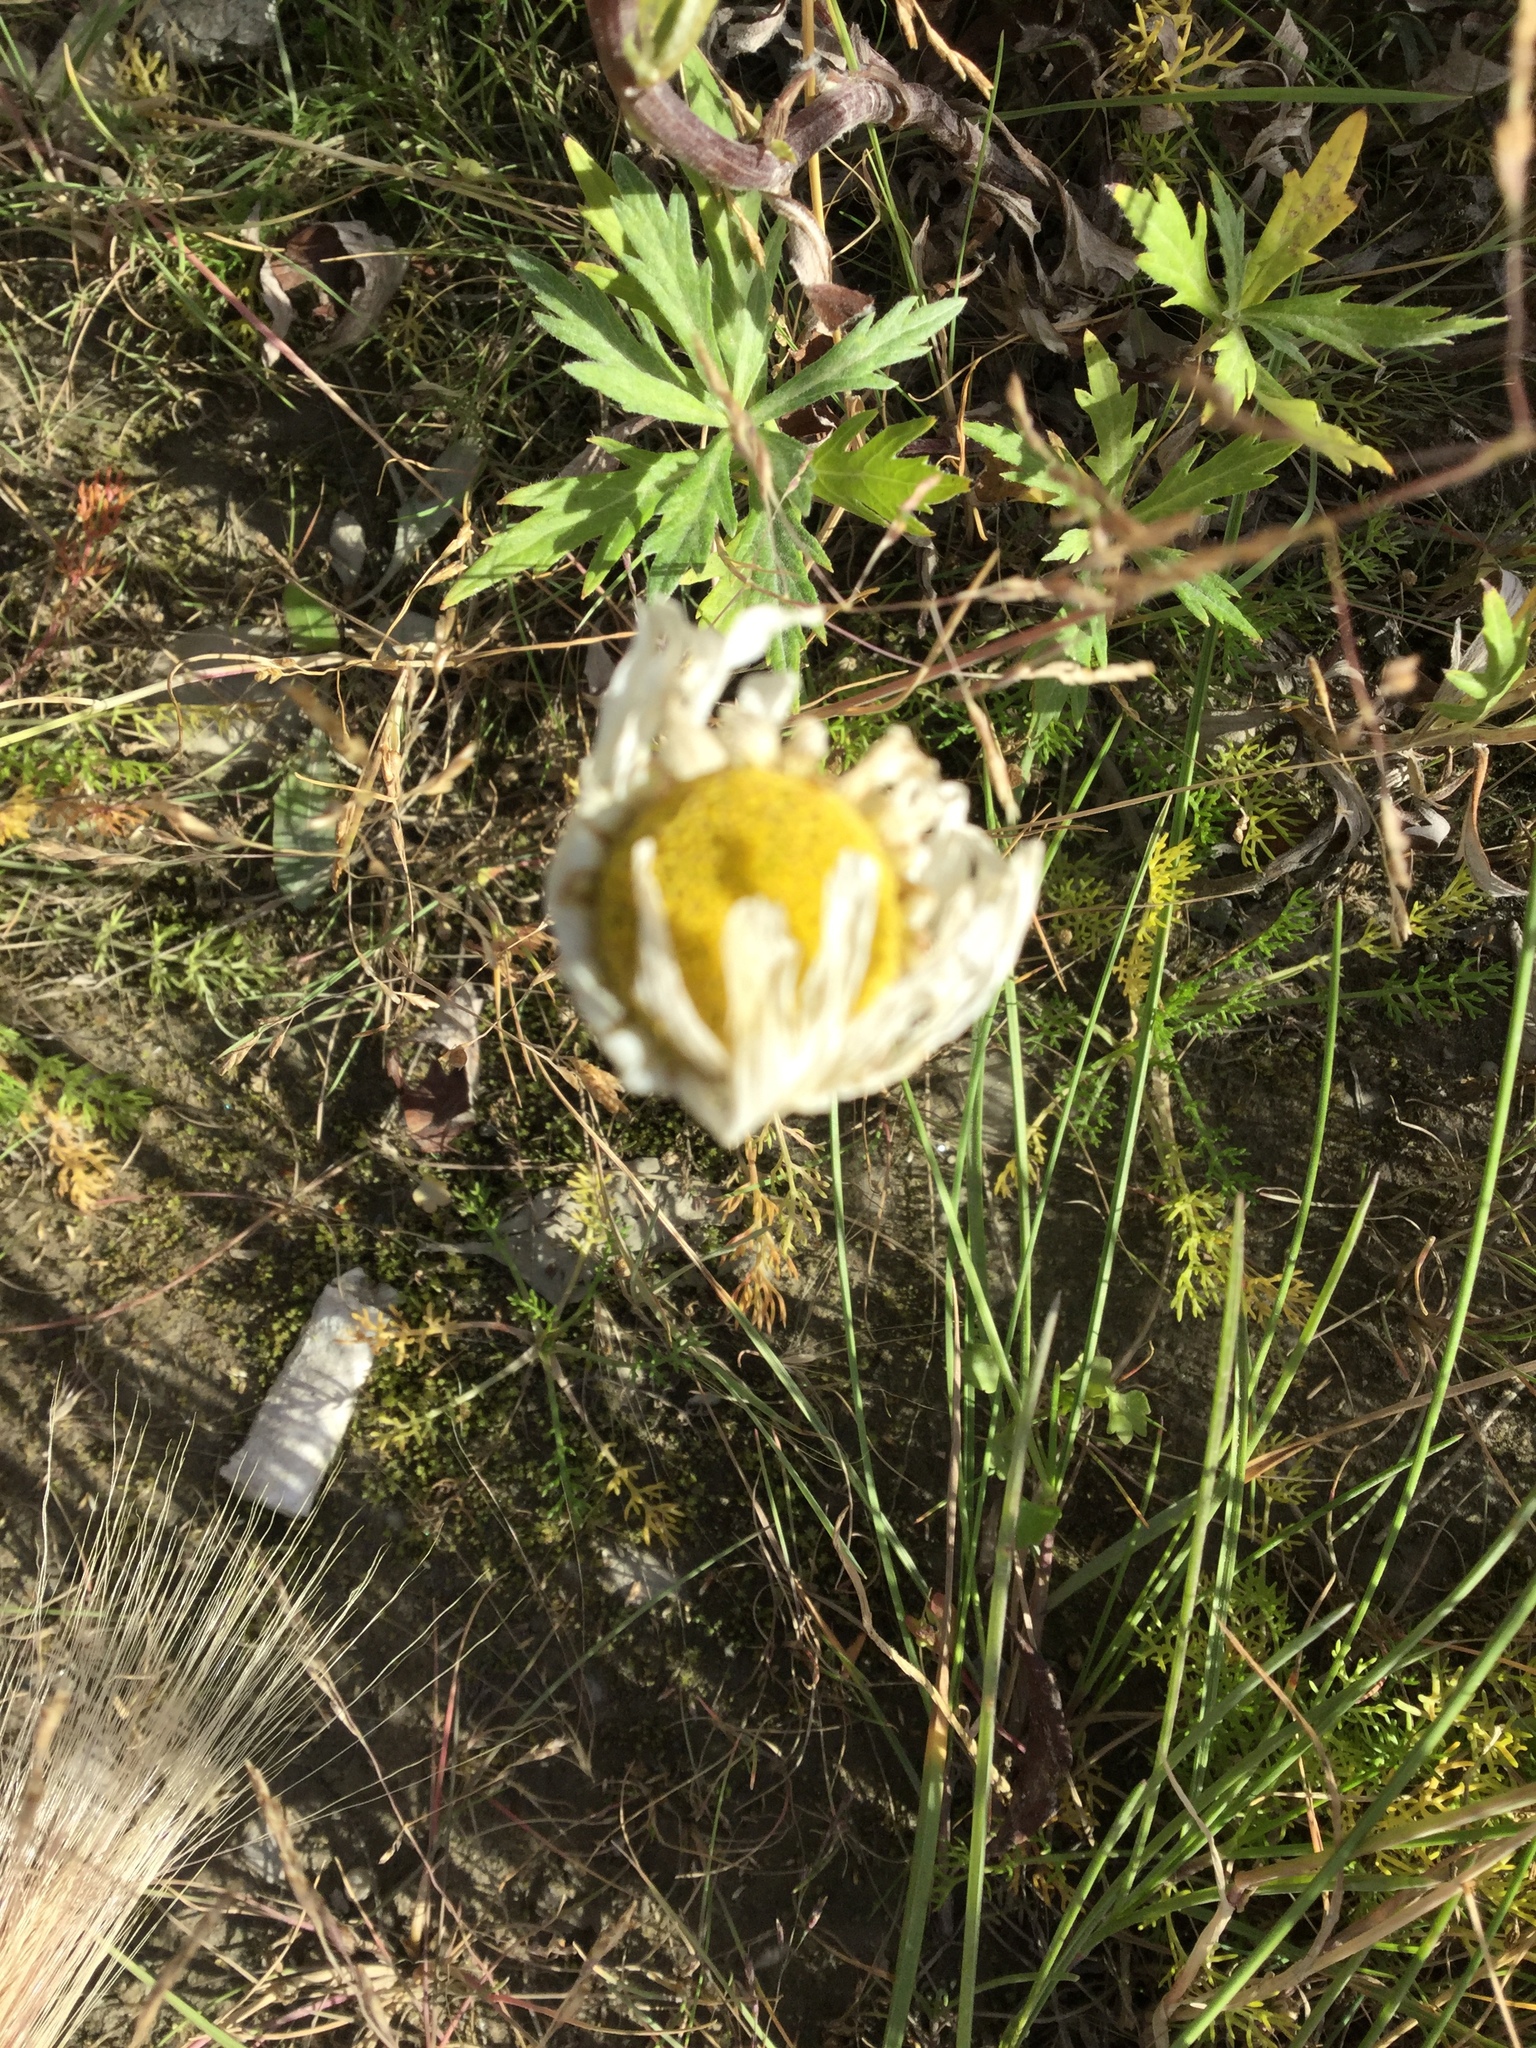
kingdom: Plantae
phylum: Tracheophyta
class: Magnoliopsida
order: Asterales
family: Asteraceae
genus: Tripleurospermum
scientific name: Tripleurospermum hookeri
